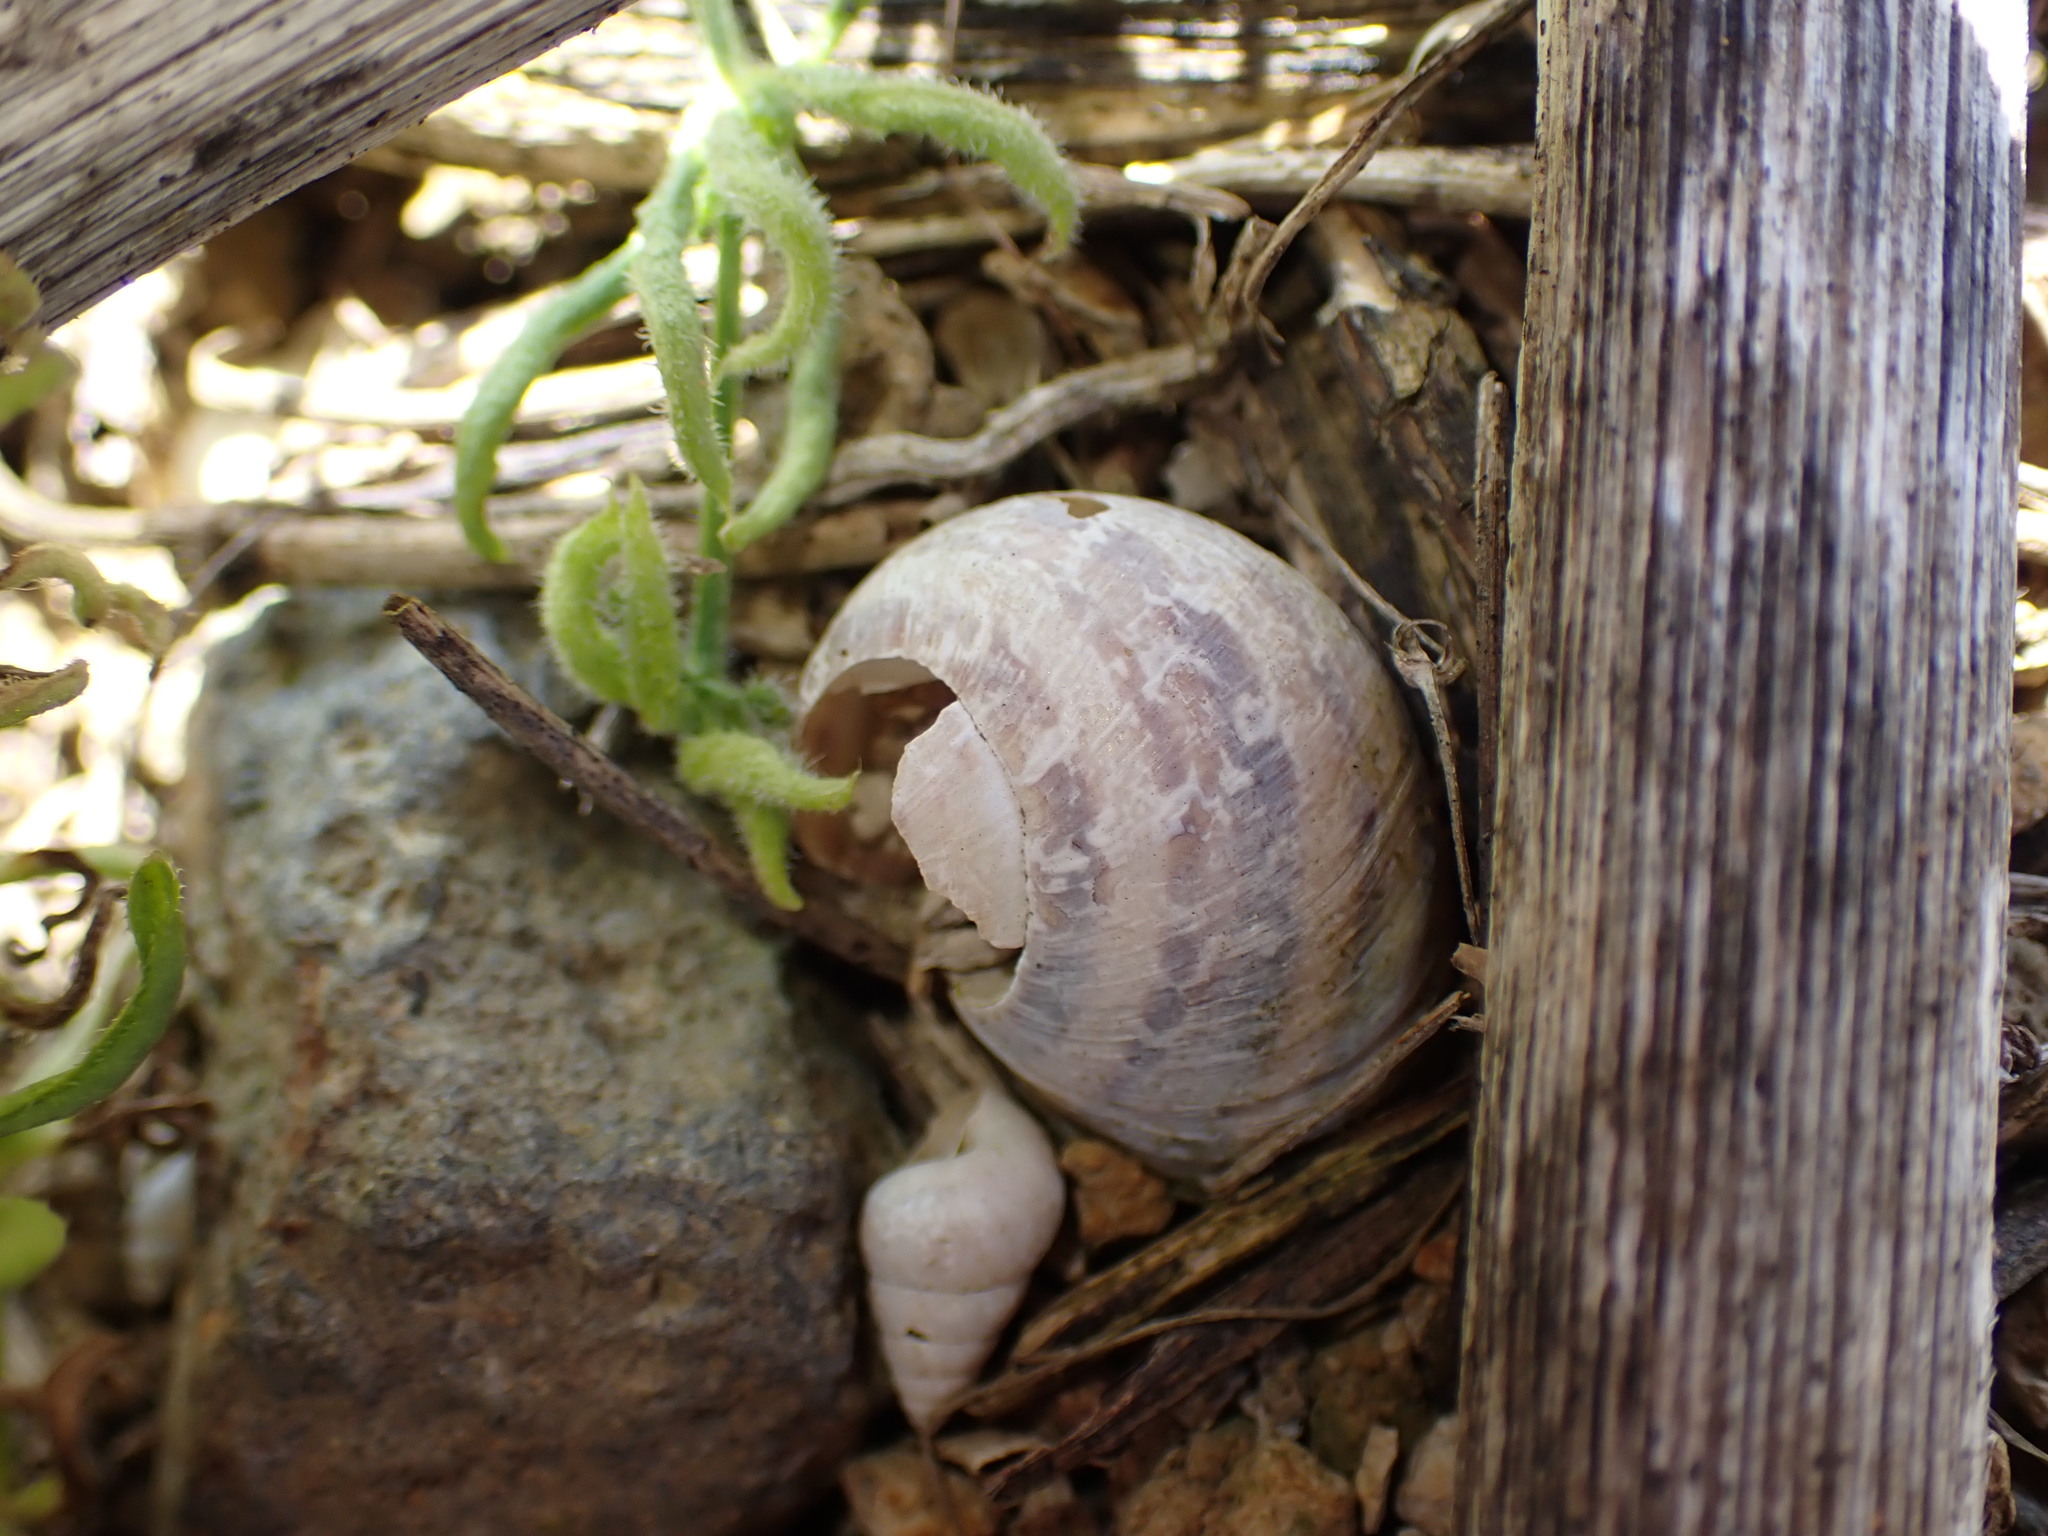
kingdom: Animalia
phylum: Mollusca
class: Gastropoda
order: Stylommatophora
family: Helicidae
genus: Cornu
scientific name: Cornu aspersum
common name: Brown garden snail
